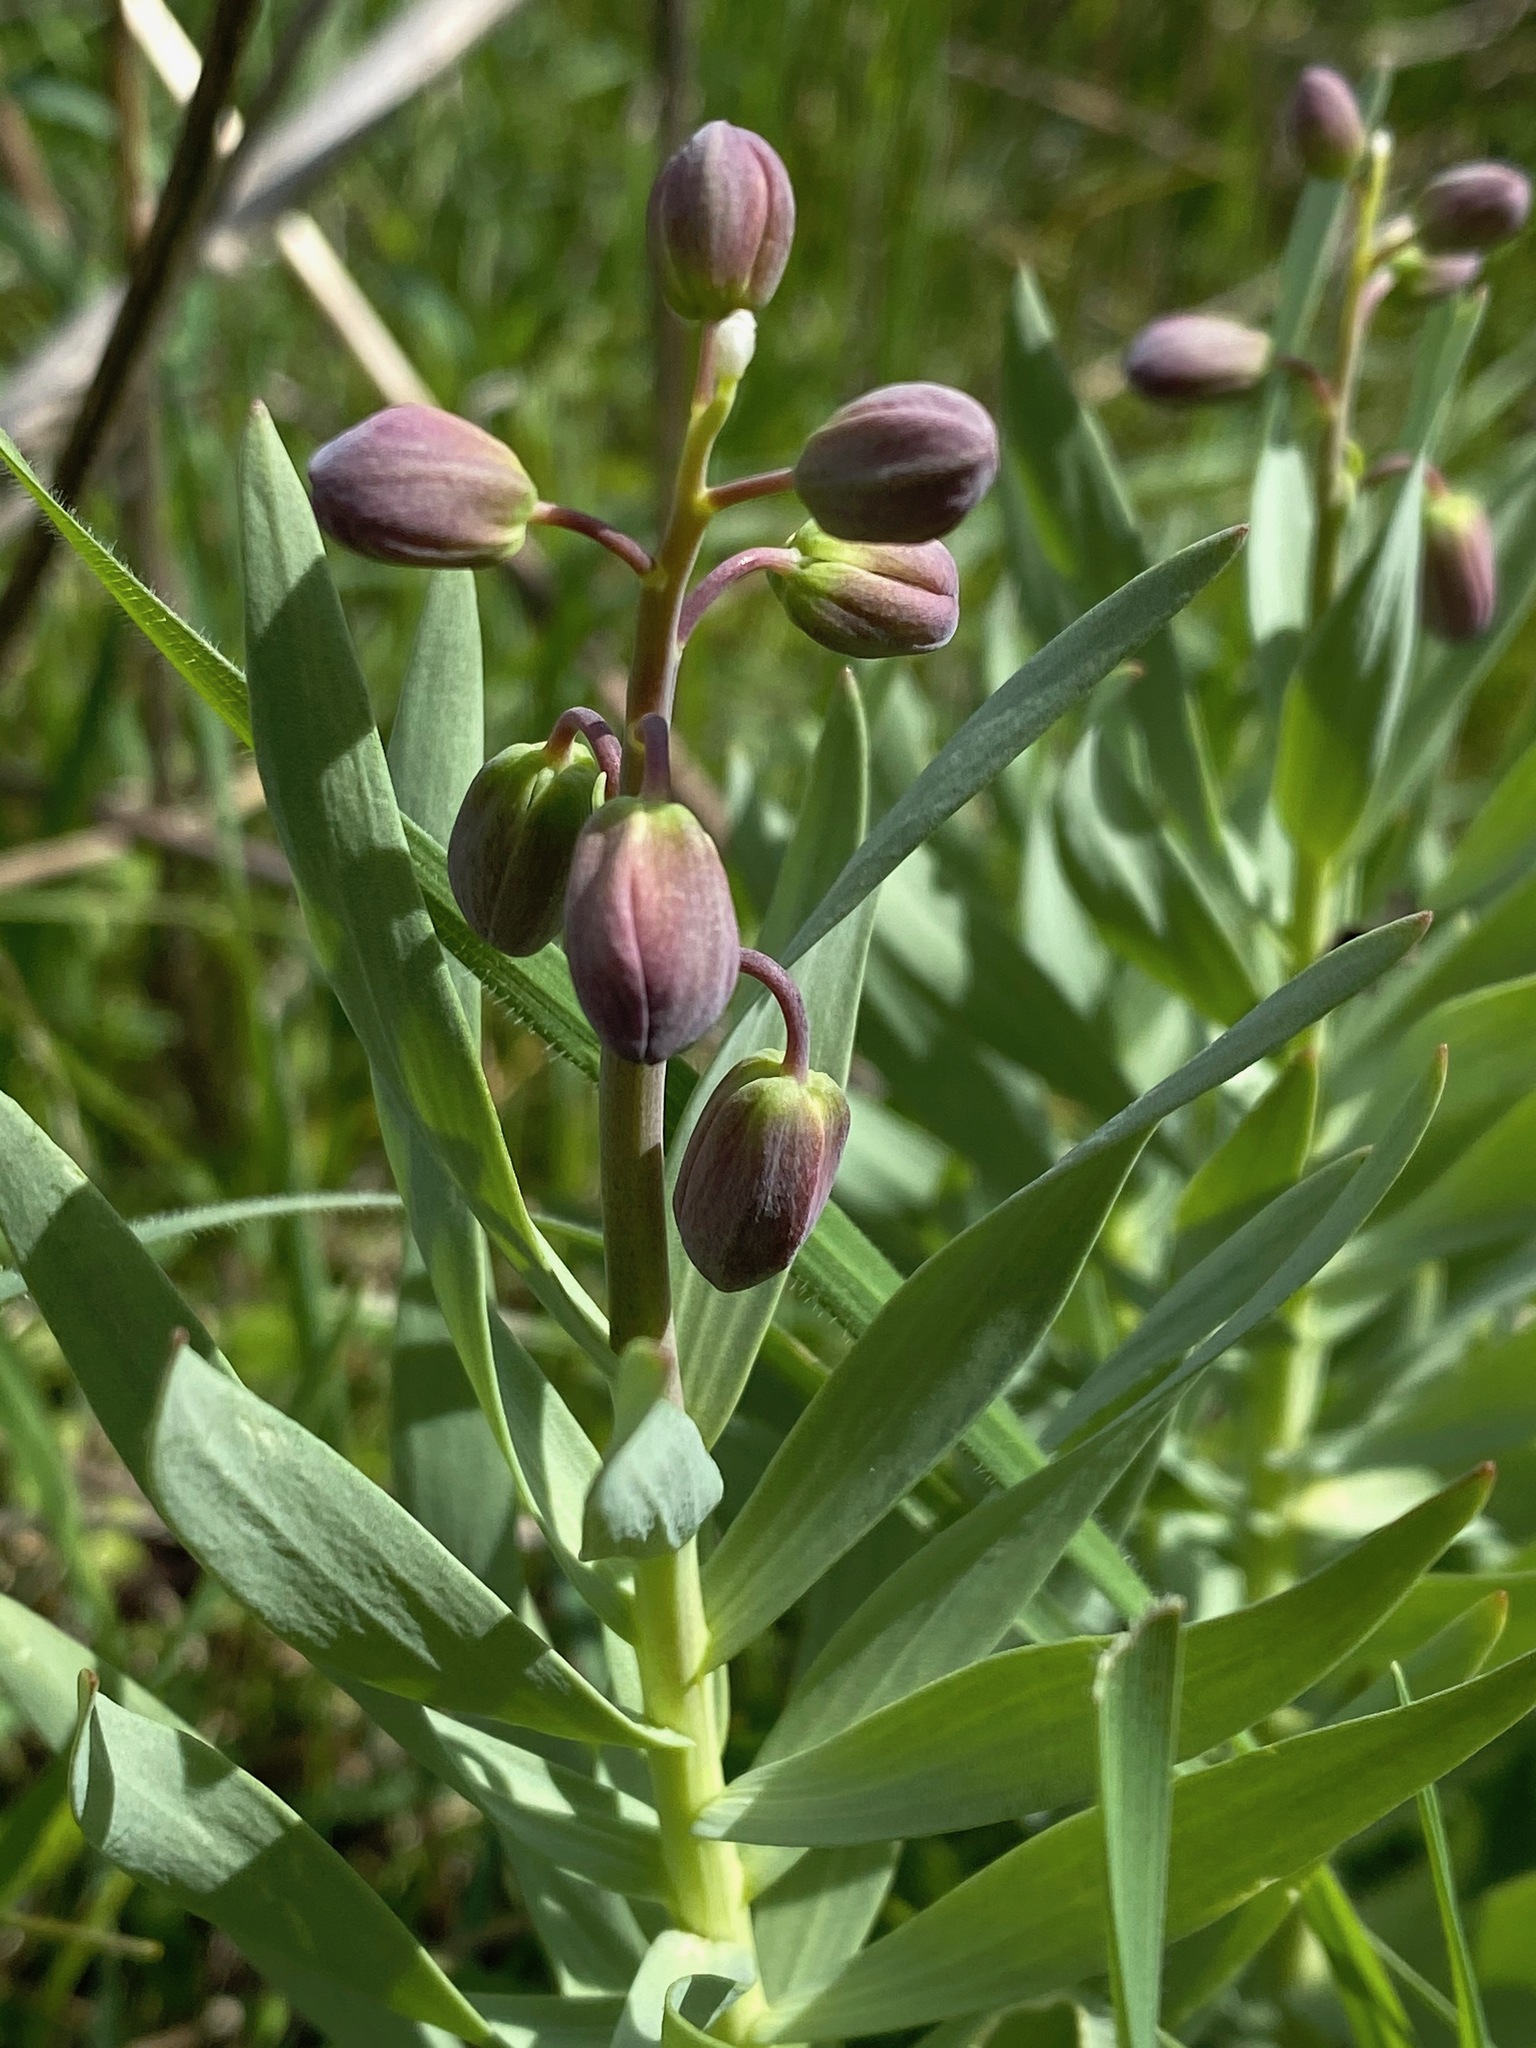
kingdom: Plantae
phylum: Tracheophyta
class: Liliopsida
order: Liliales
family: Liliaceae
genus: Fritillaria
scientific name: Fritillaria persica
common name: Persian fritillary
